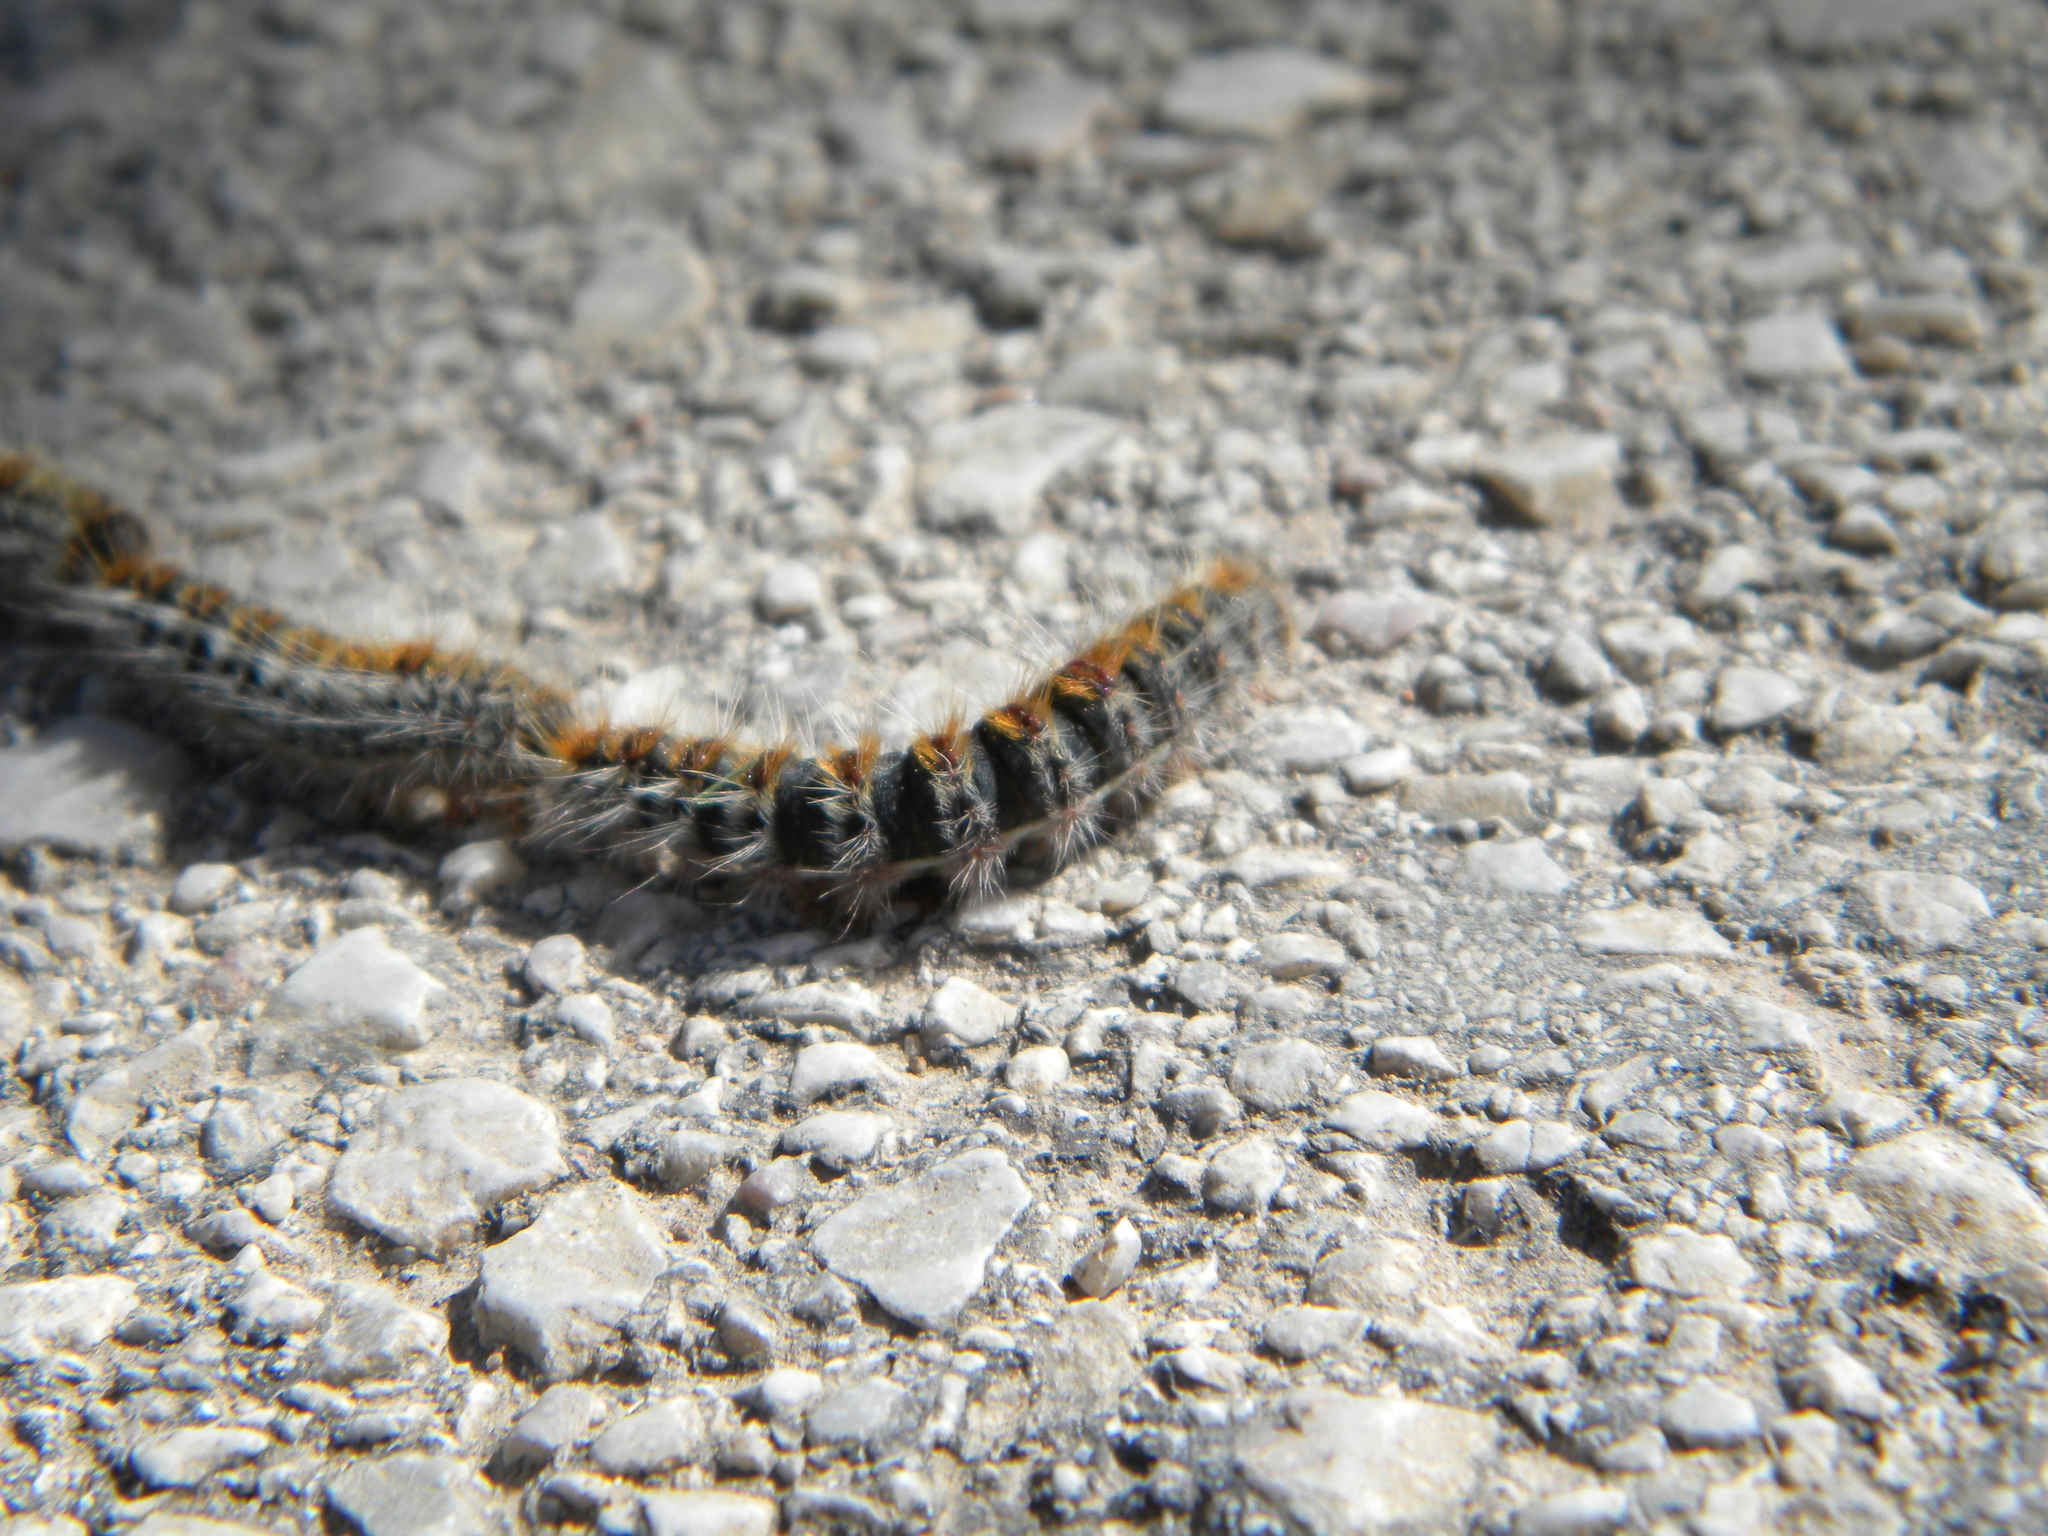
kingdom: Animalia
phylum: Arthropoda
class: Insecta
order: Lepidoptera
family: Notodontidae
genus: Thaumetopoea
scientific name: Thaumetopoea pityocampa
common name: Pine processionary
